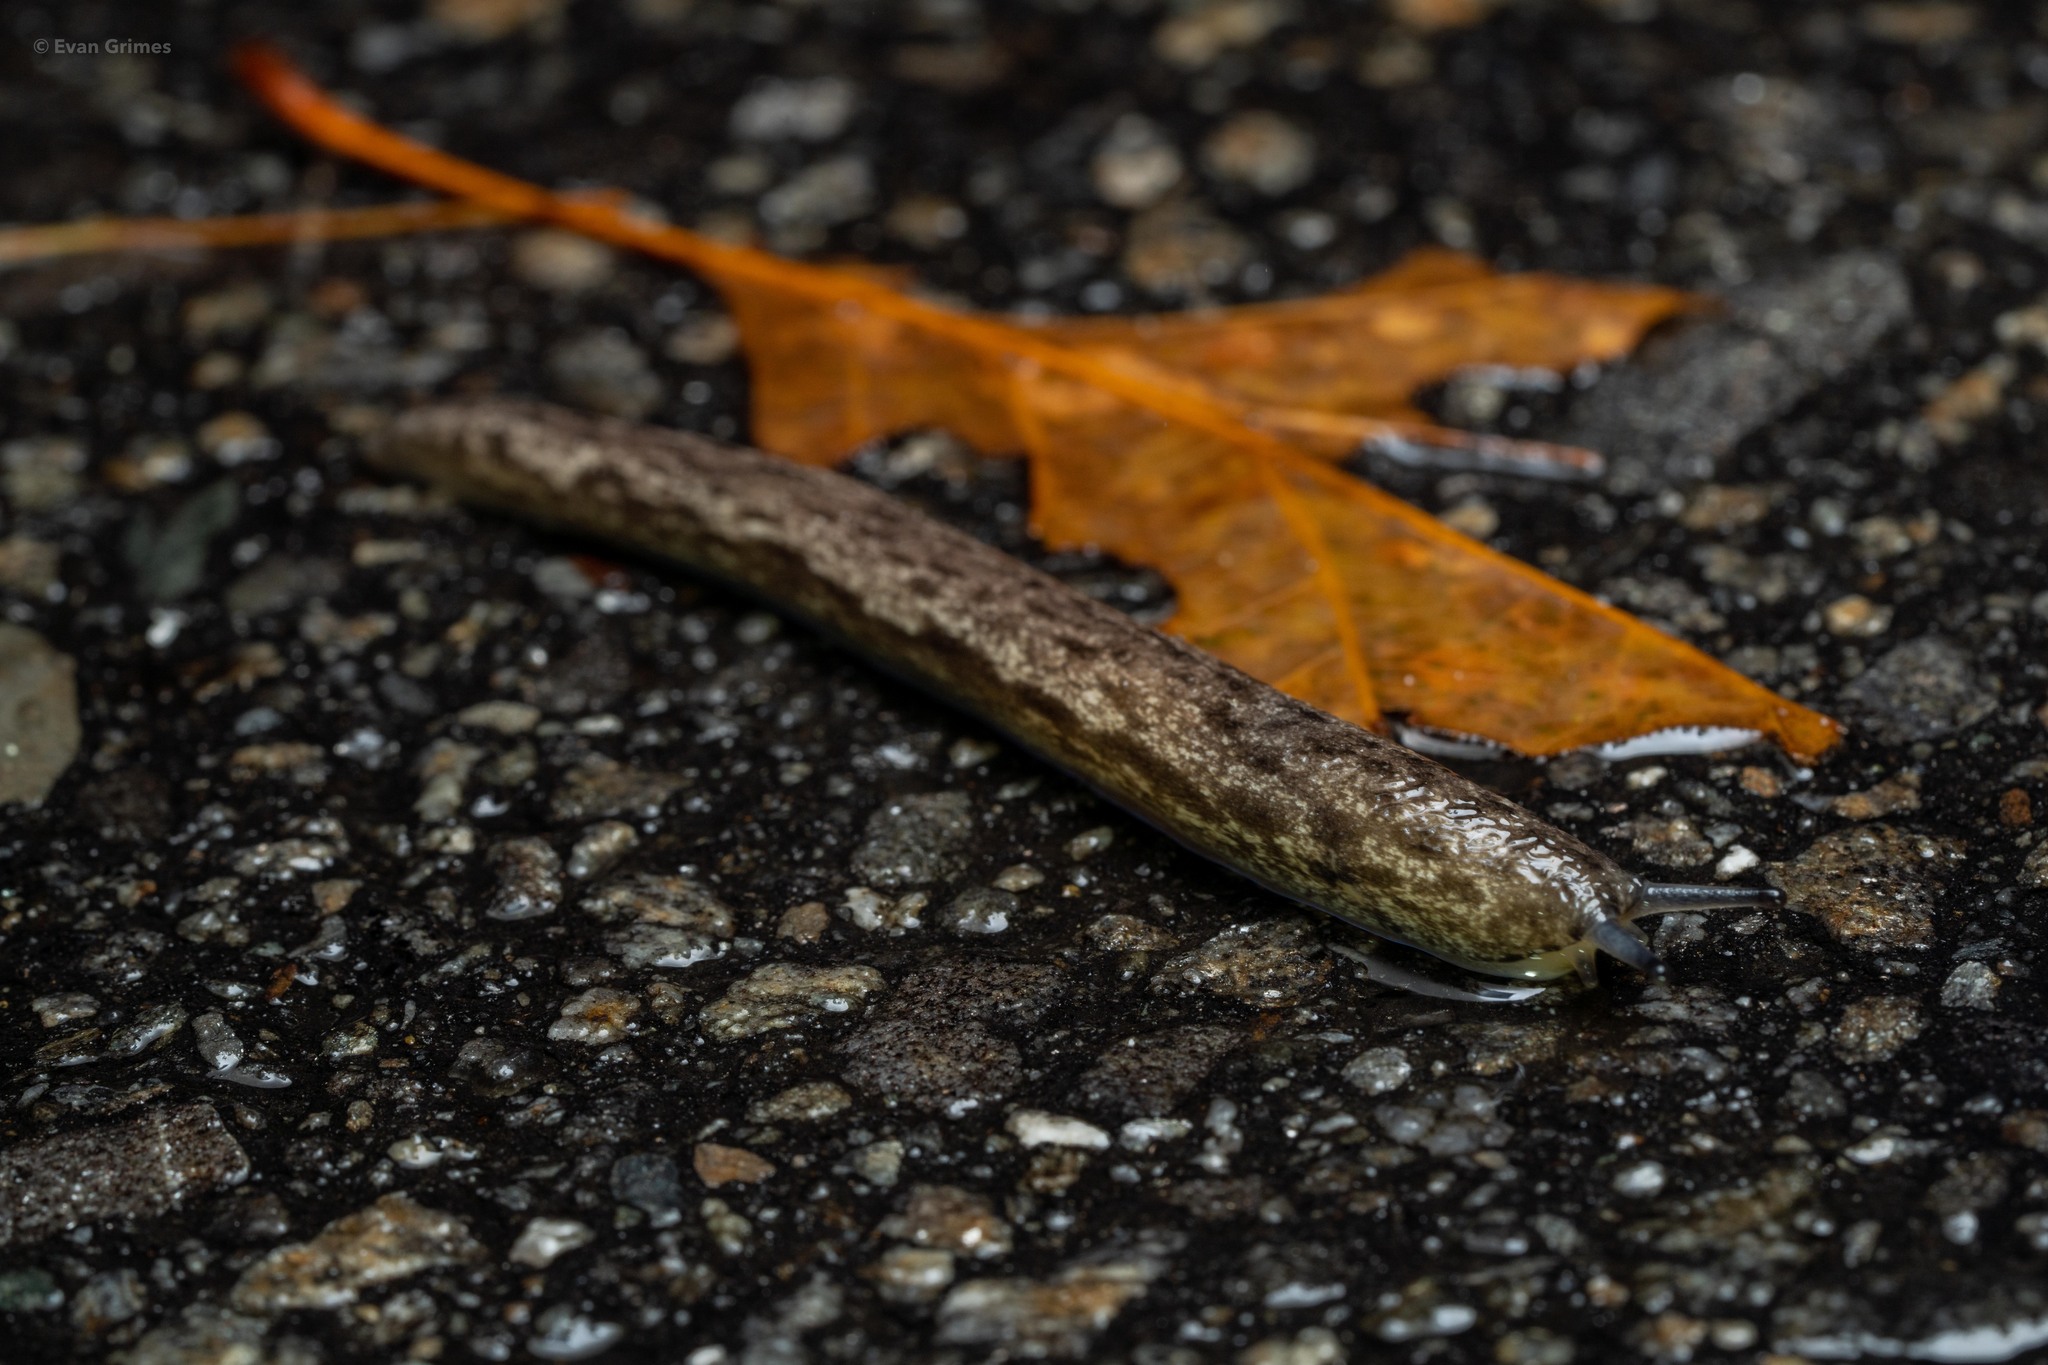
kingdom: Animalia
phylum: Mollusca
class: Gastropoda
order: Stylommatophora
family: Philomycidae
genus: Megapallifera
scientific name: Megapallifera mutabilis
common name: Changeable mantleslug
